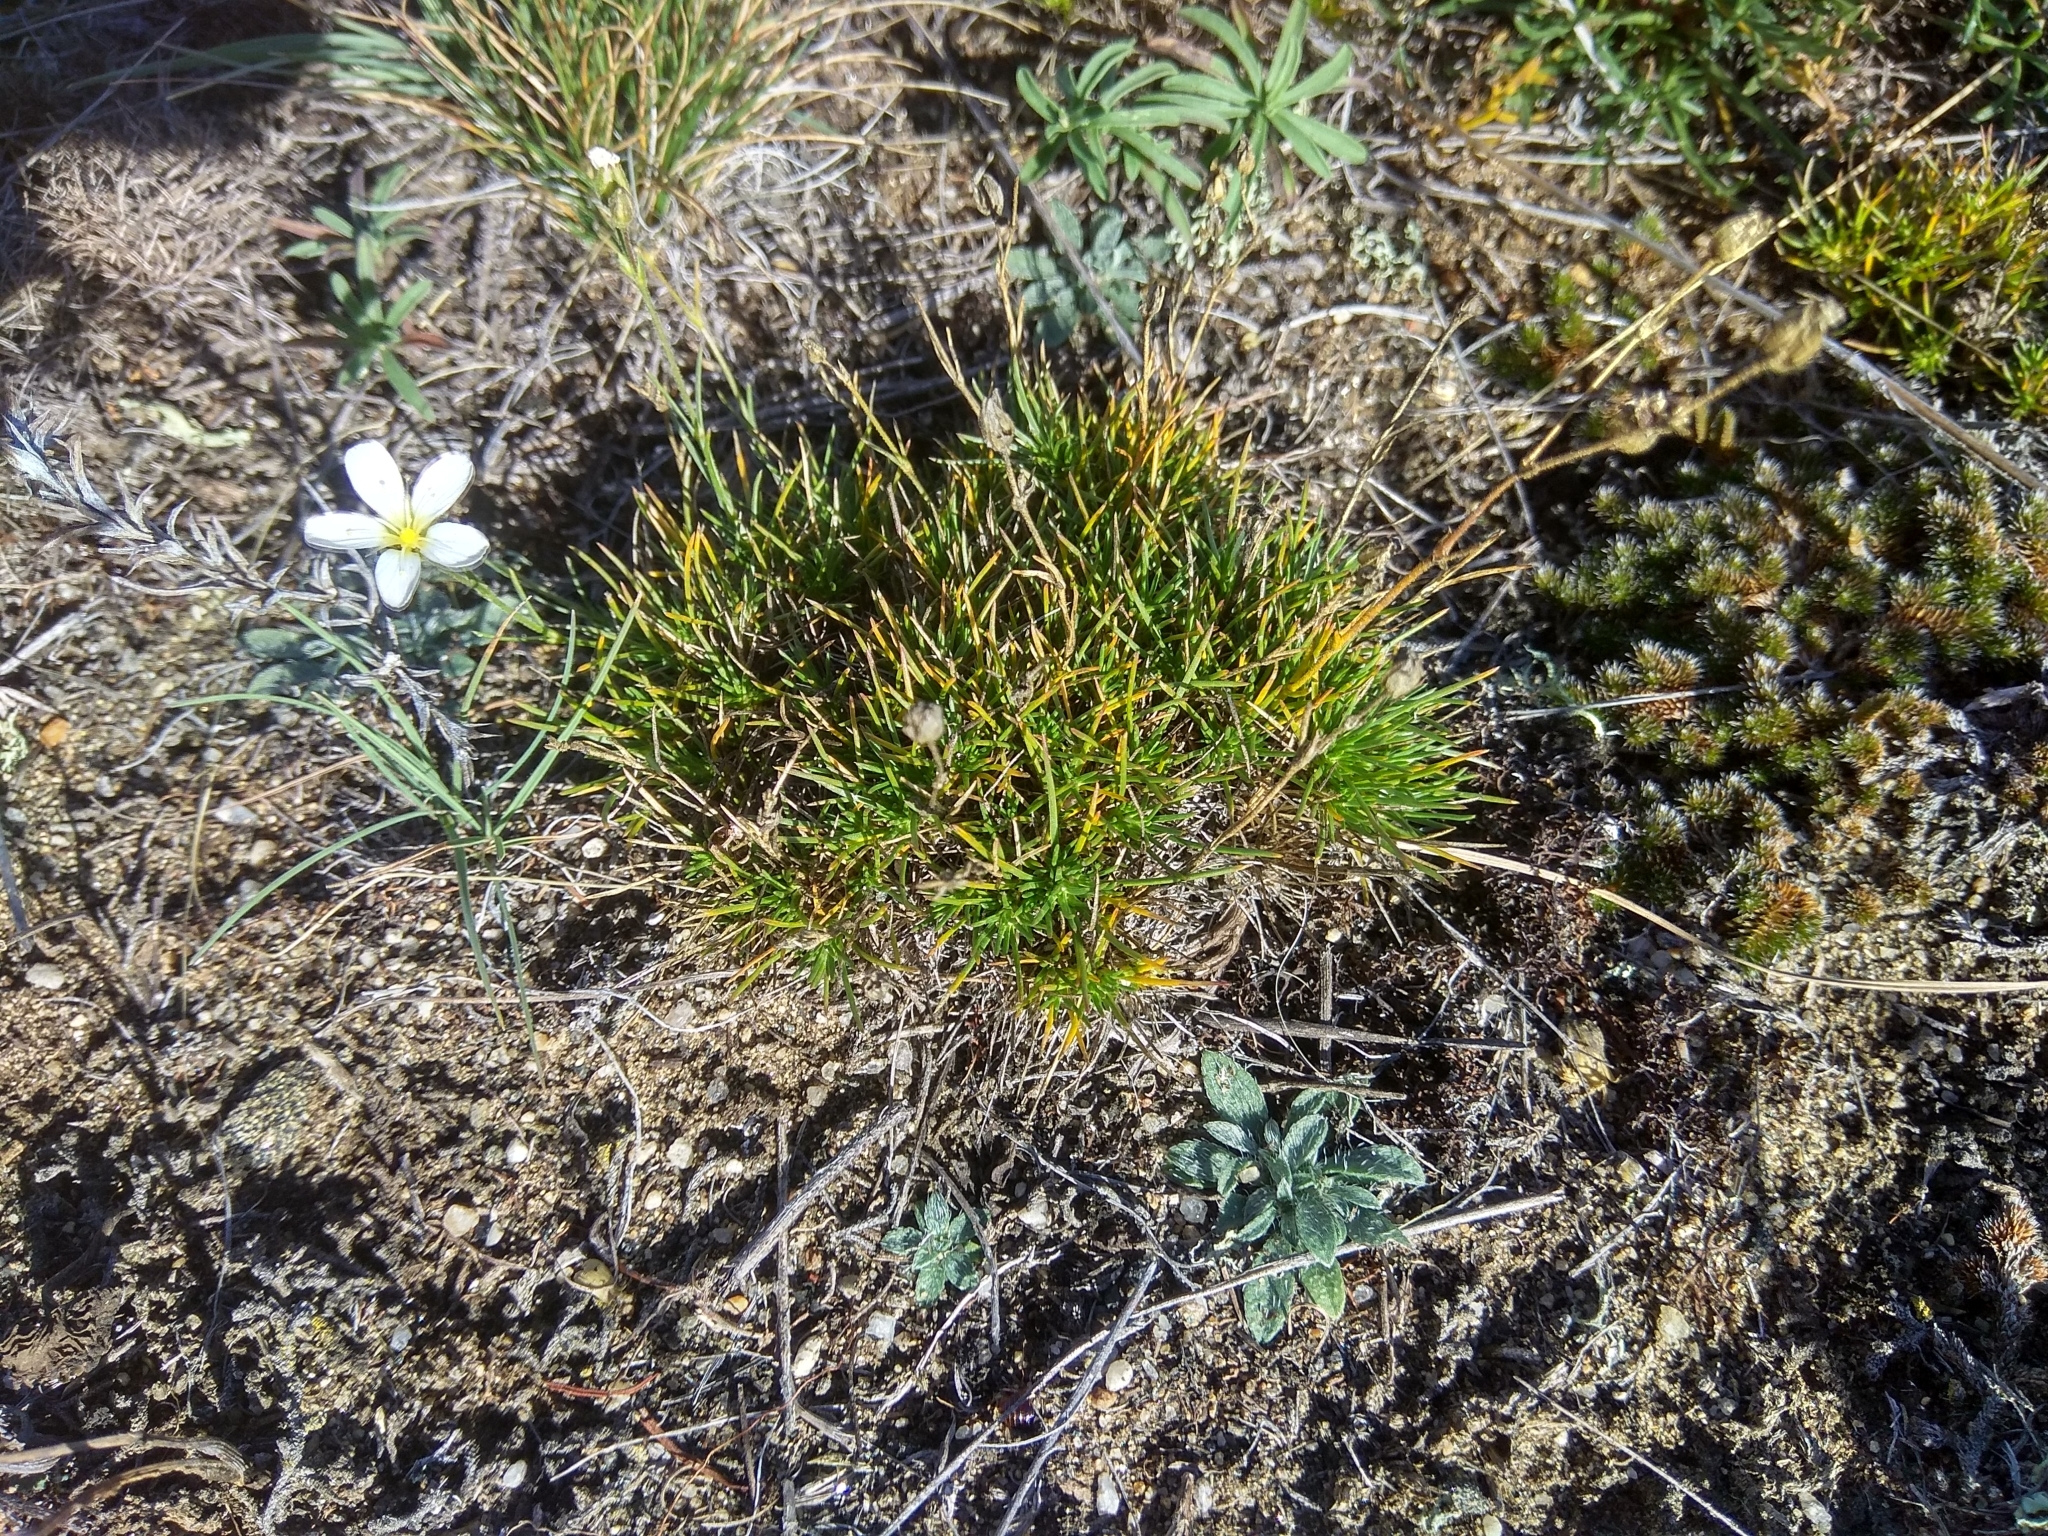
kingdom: Plantae
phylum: Tracheophyta
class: Magnoliopsida
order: Caryophyllales
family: Caryophyllaceae
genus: Eremogone
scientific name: Eremogone meyeri
